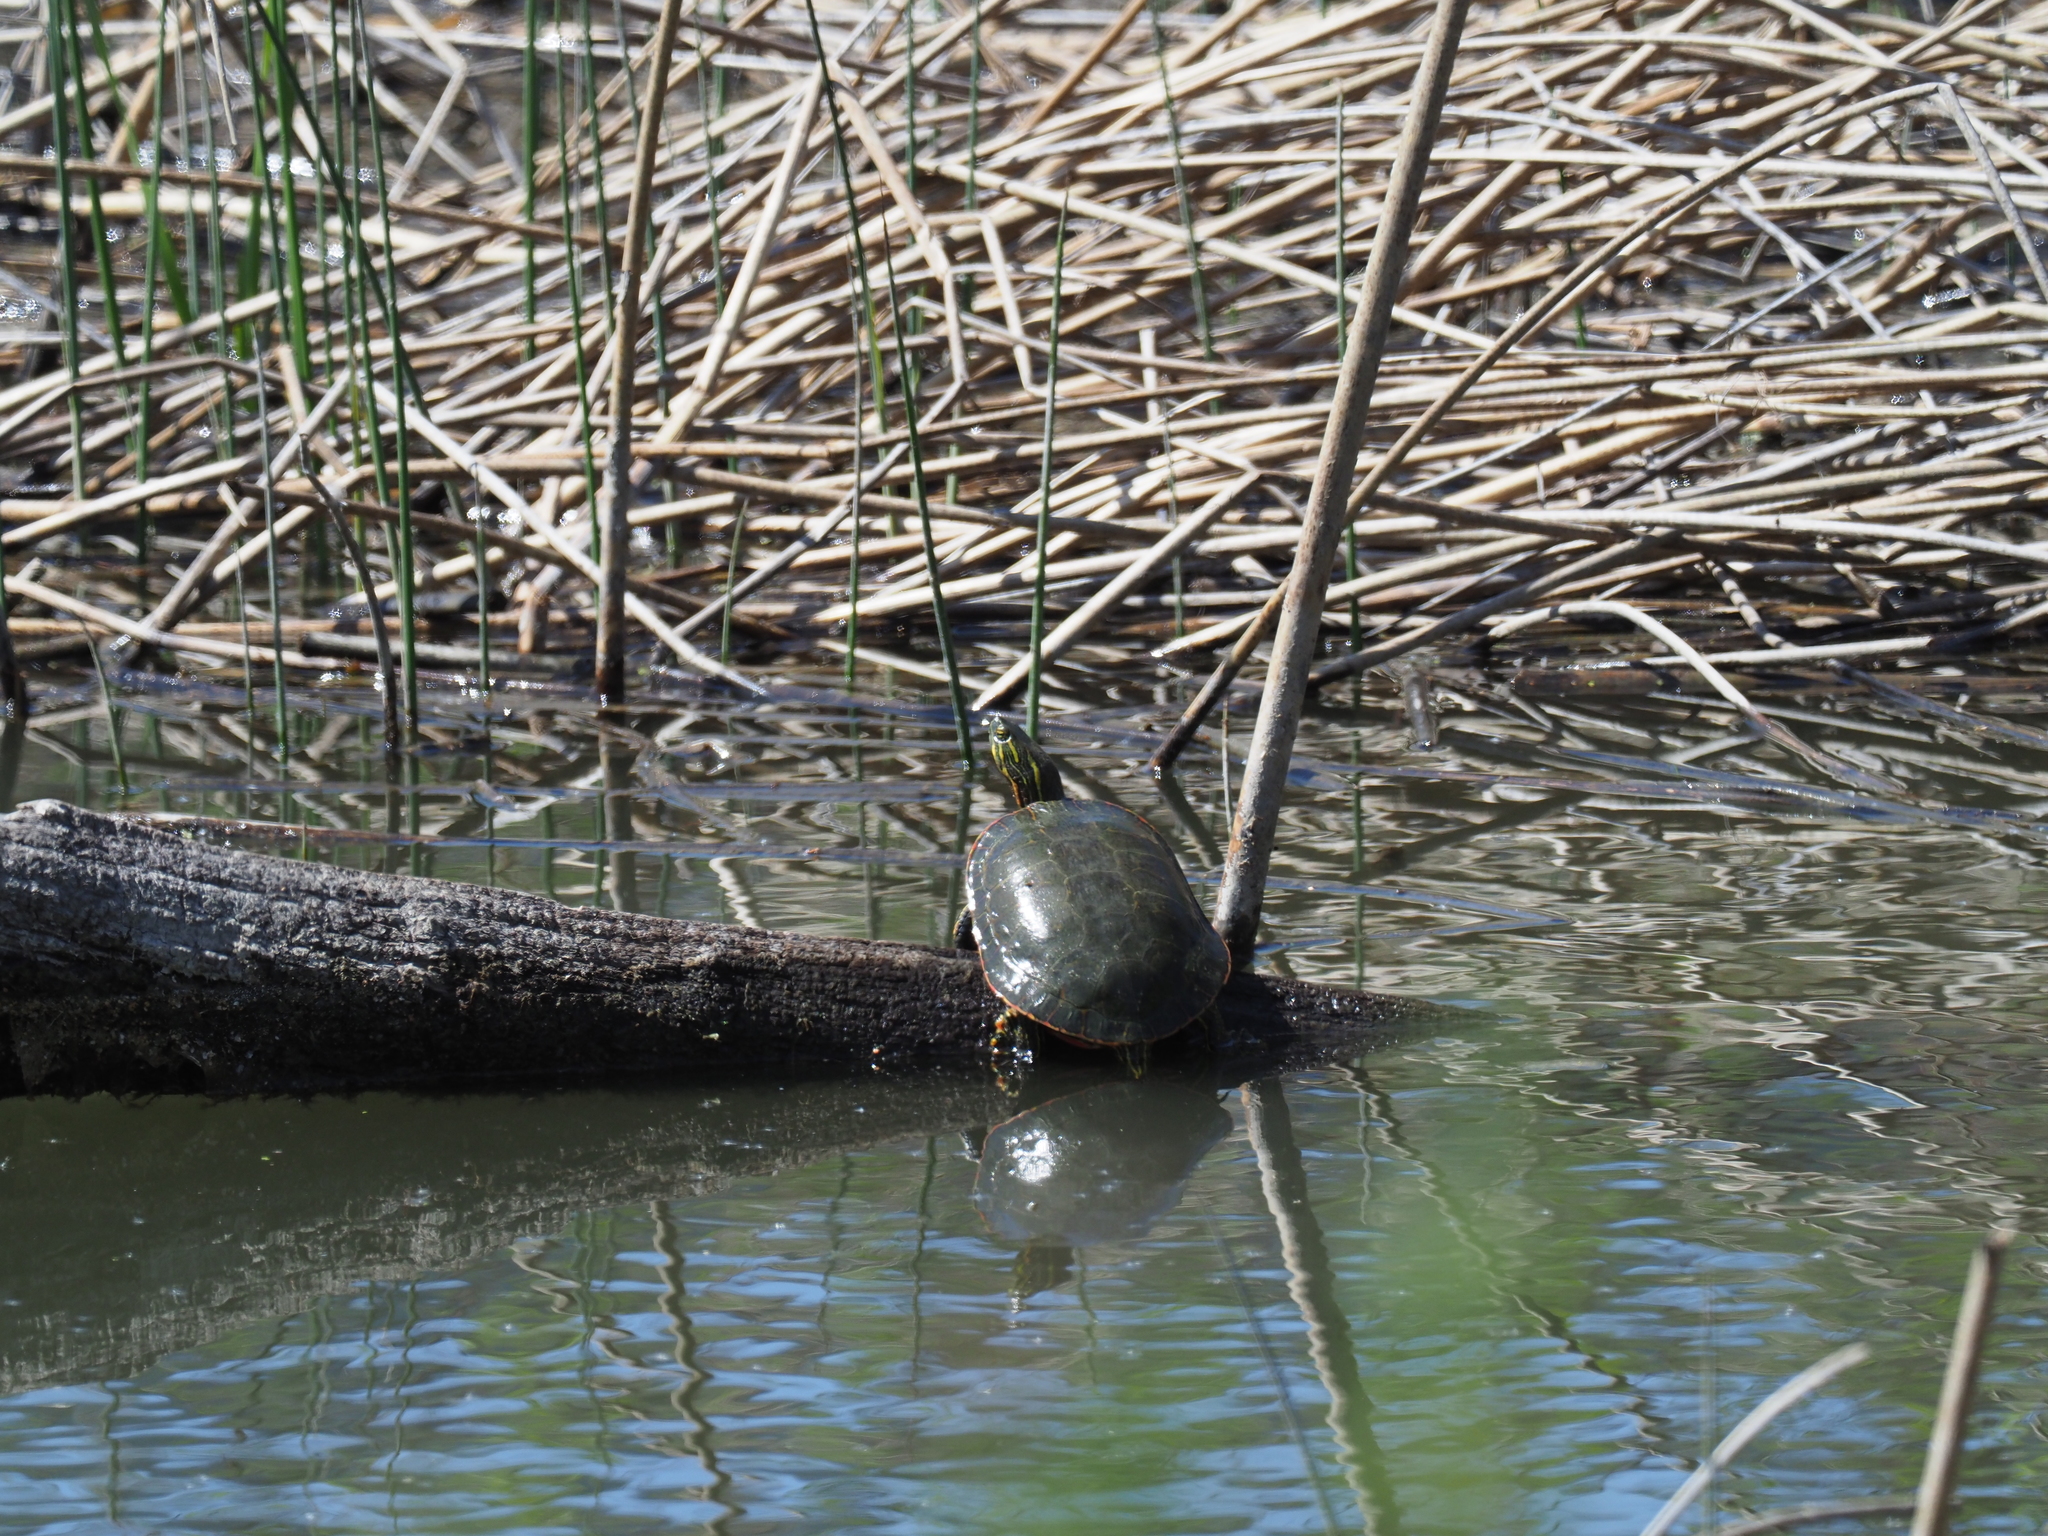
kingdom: Animalia
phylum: Chordata
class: Testudines
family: Emydidae
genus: Chrysemys
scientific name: Chrysemys picta
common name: Painted turtle
